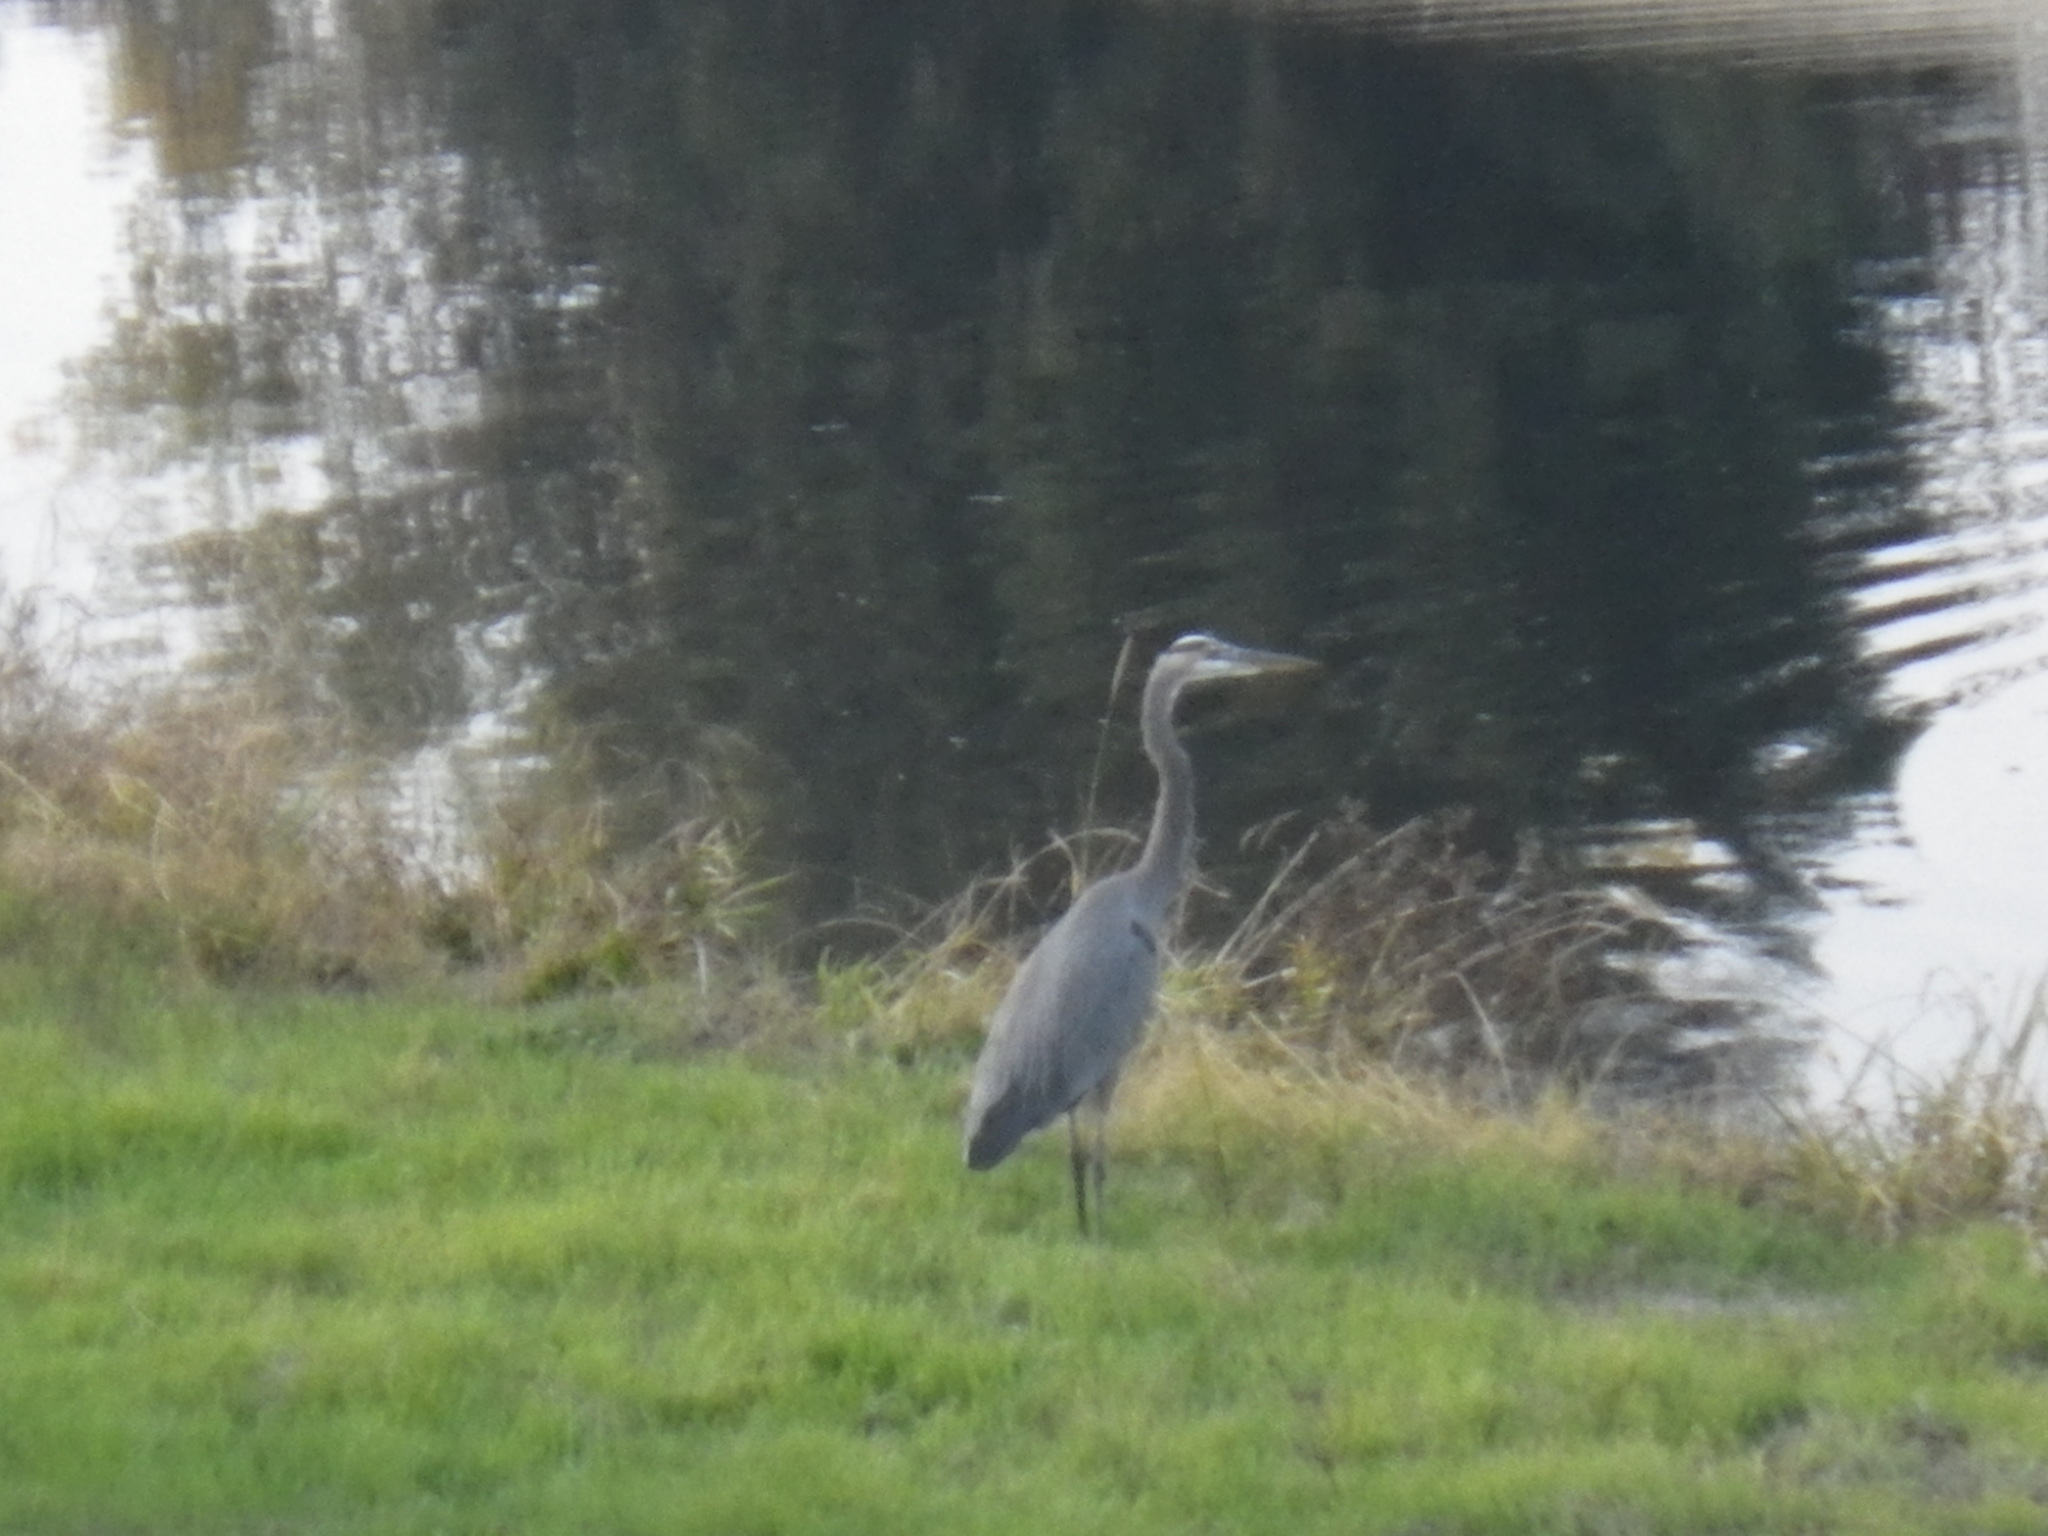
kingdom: Animalia
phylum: Chordata
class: Aves
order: Pelecaniformes
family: Ardeidae
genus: Ardea
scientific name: Ardea herodias
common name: Great blue heron
